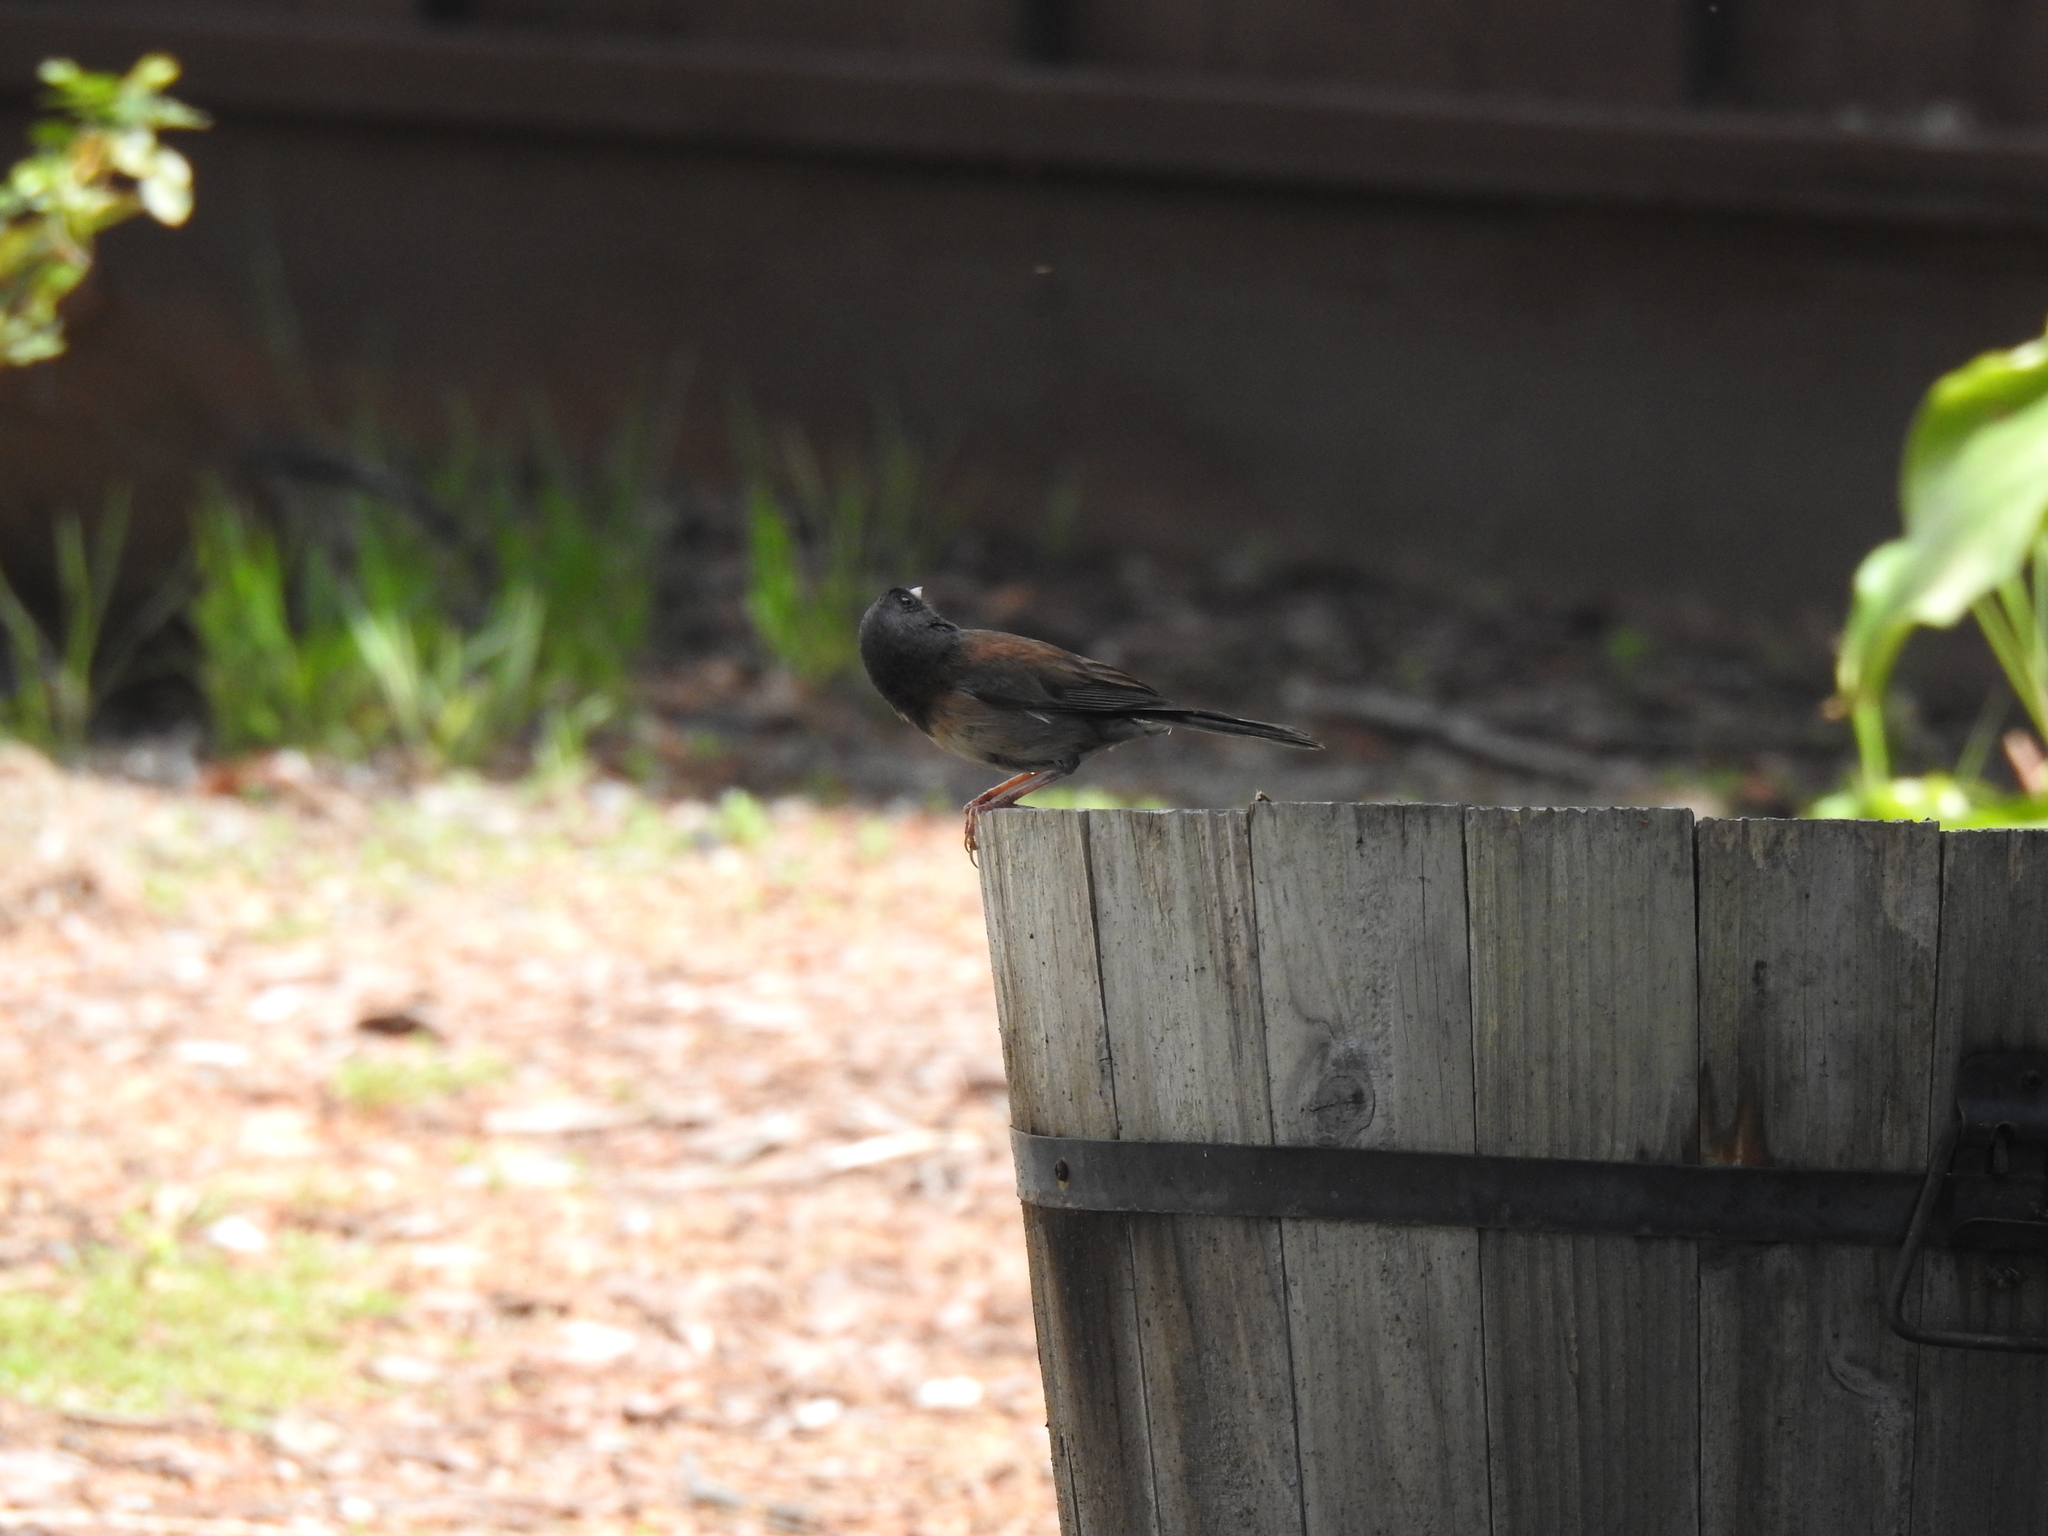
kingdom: Animalia
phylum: Chordata
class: Aves
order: Passeriformes
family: Passerellidae
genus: Junco
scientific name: Junco hyemalis
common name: Dark-eyed junco
